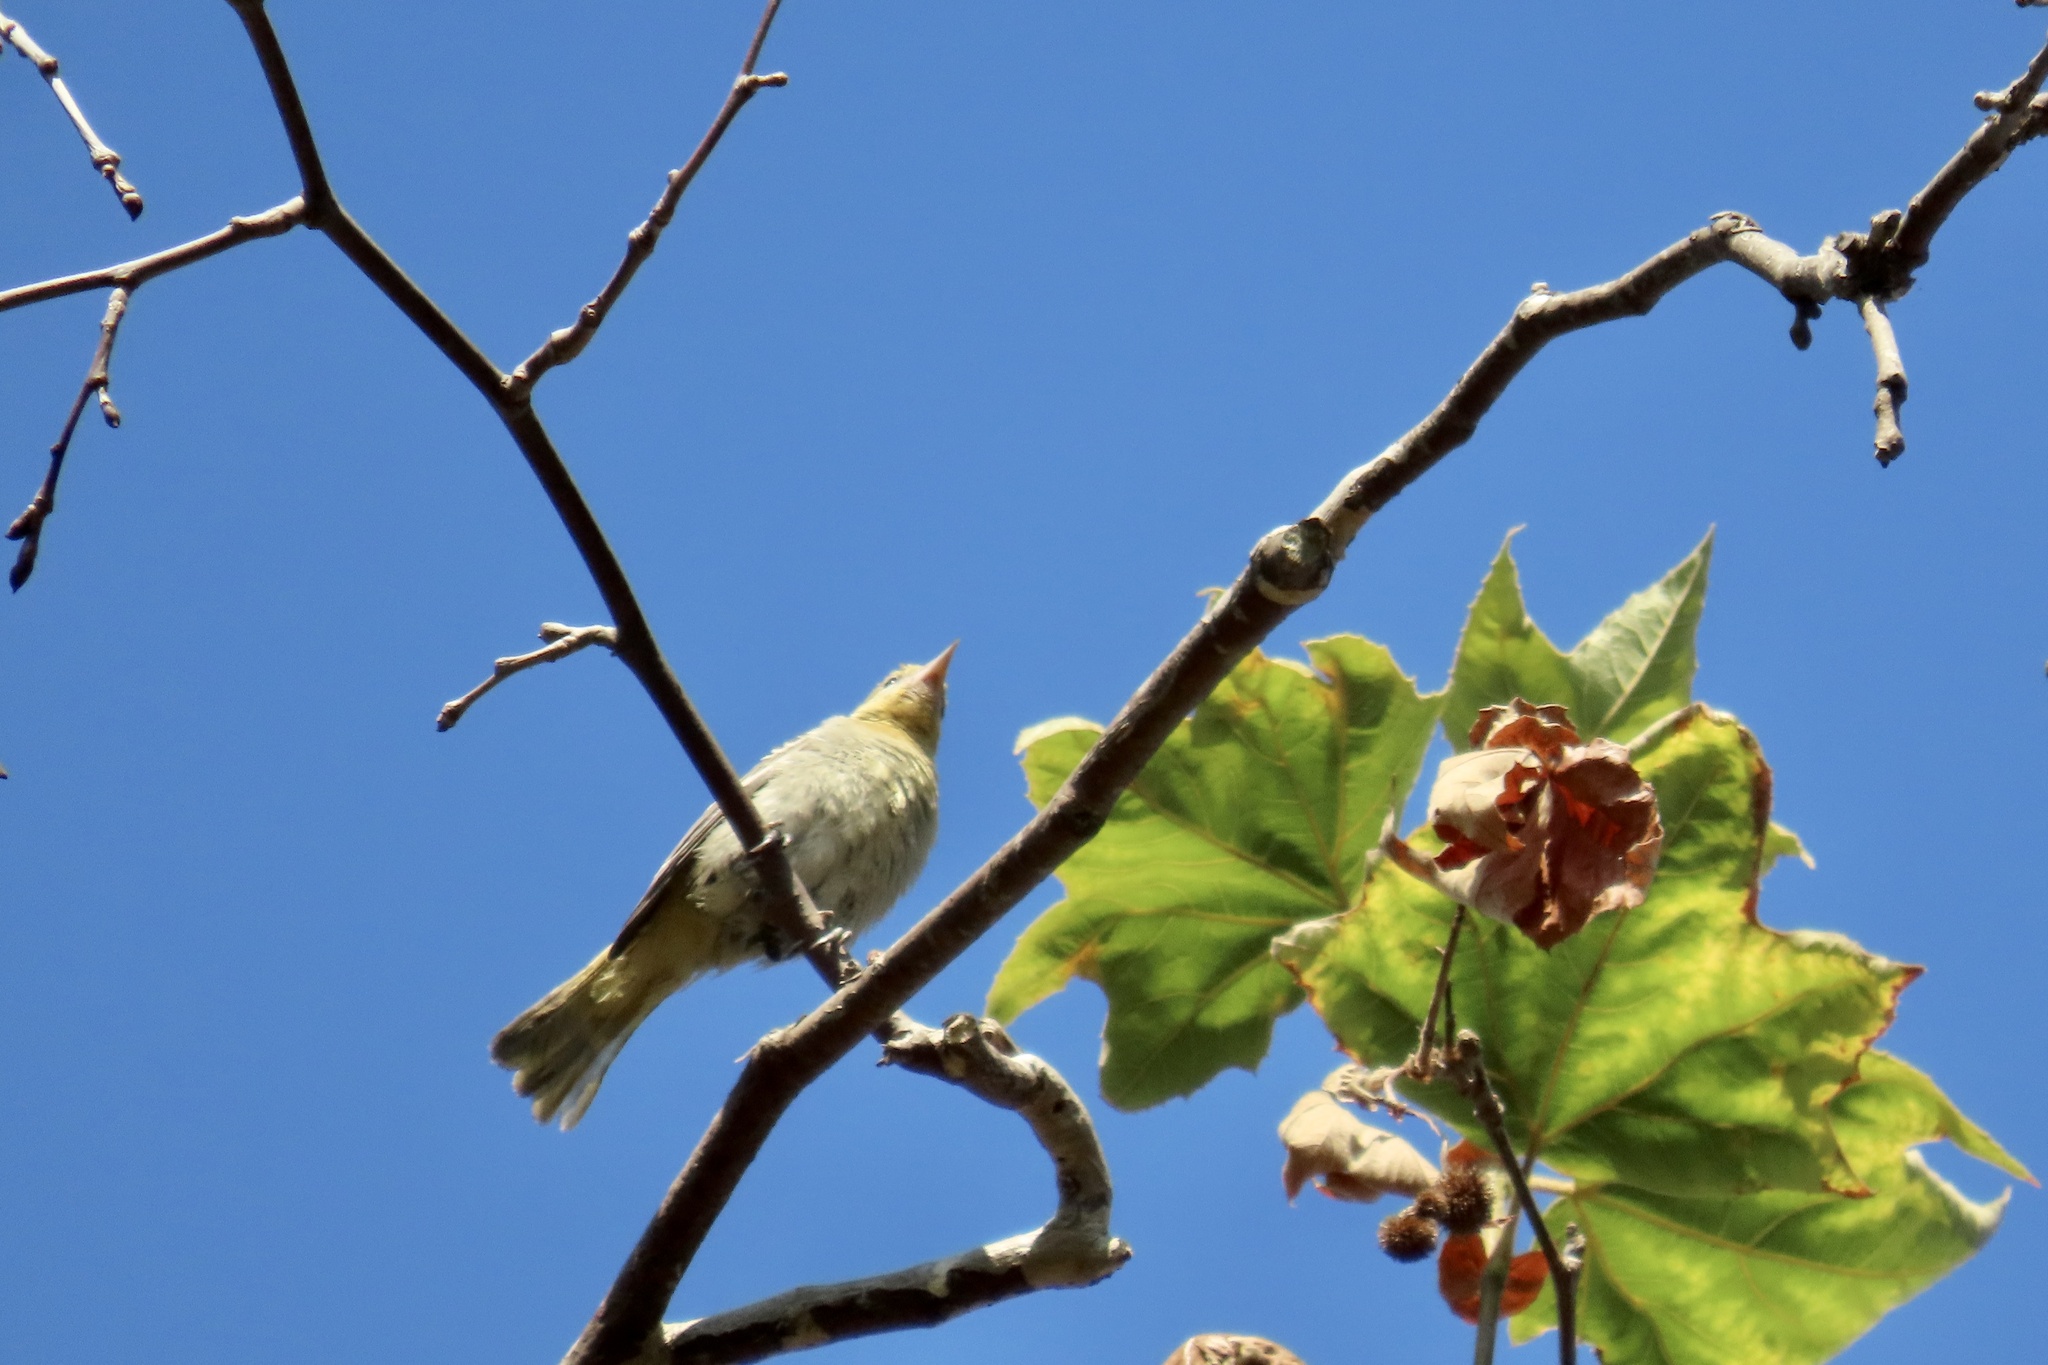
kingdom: Animalia
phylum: Chordata
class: Aves
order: Passeriformes
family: Icteridae
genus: Icterus
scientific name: Icterus bullockii
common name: Bullock's oriole
